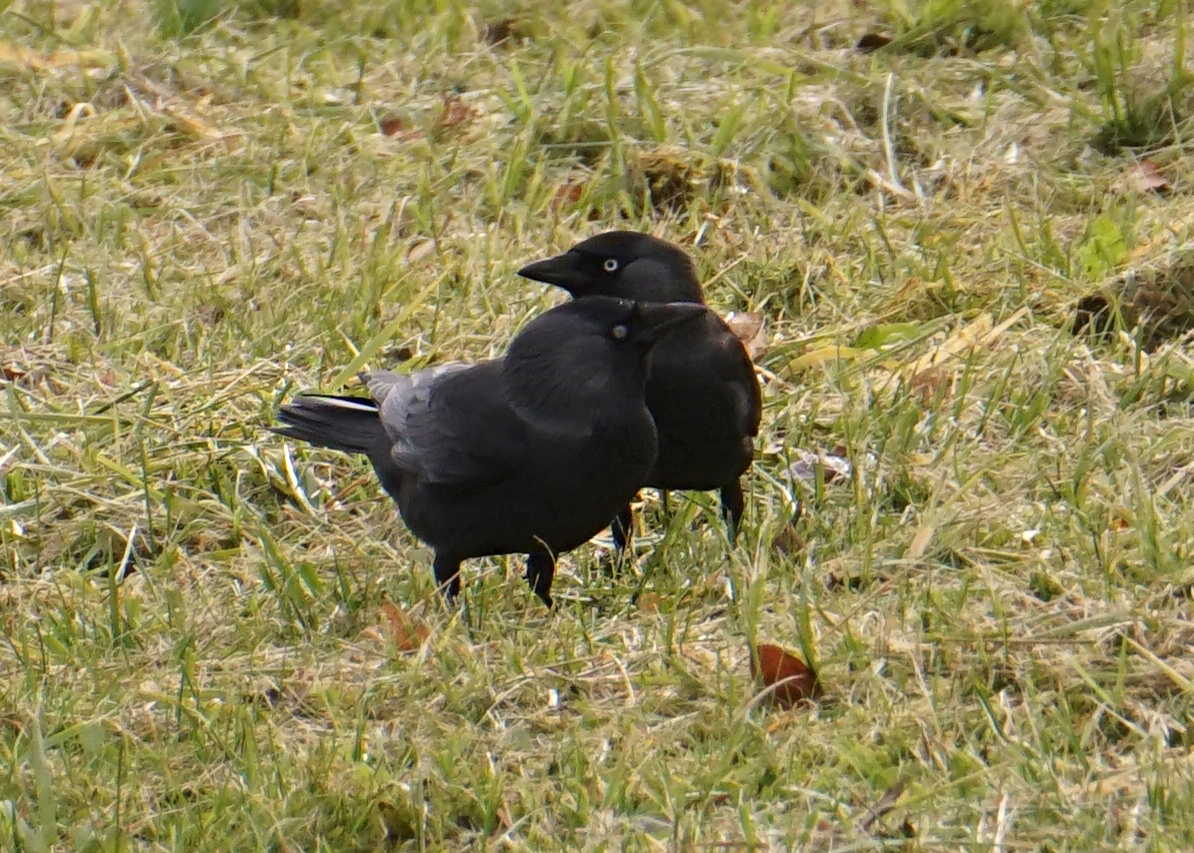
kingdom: Animalia
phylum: Chordata
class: Aves
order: Passeriformes
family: Corvidae
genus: Coloeus
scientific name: Coloeus monedula
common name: Western jackdaw
